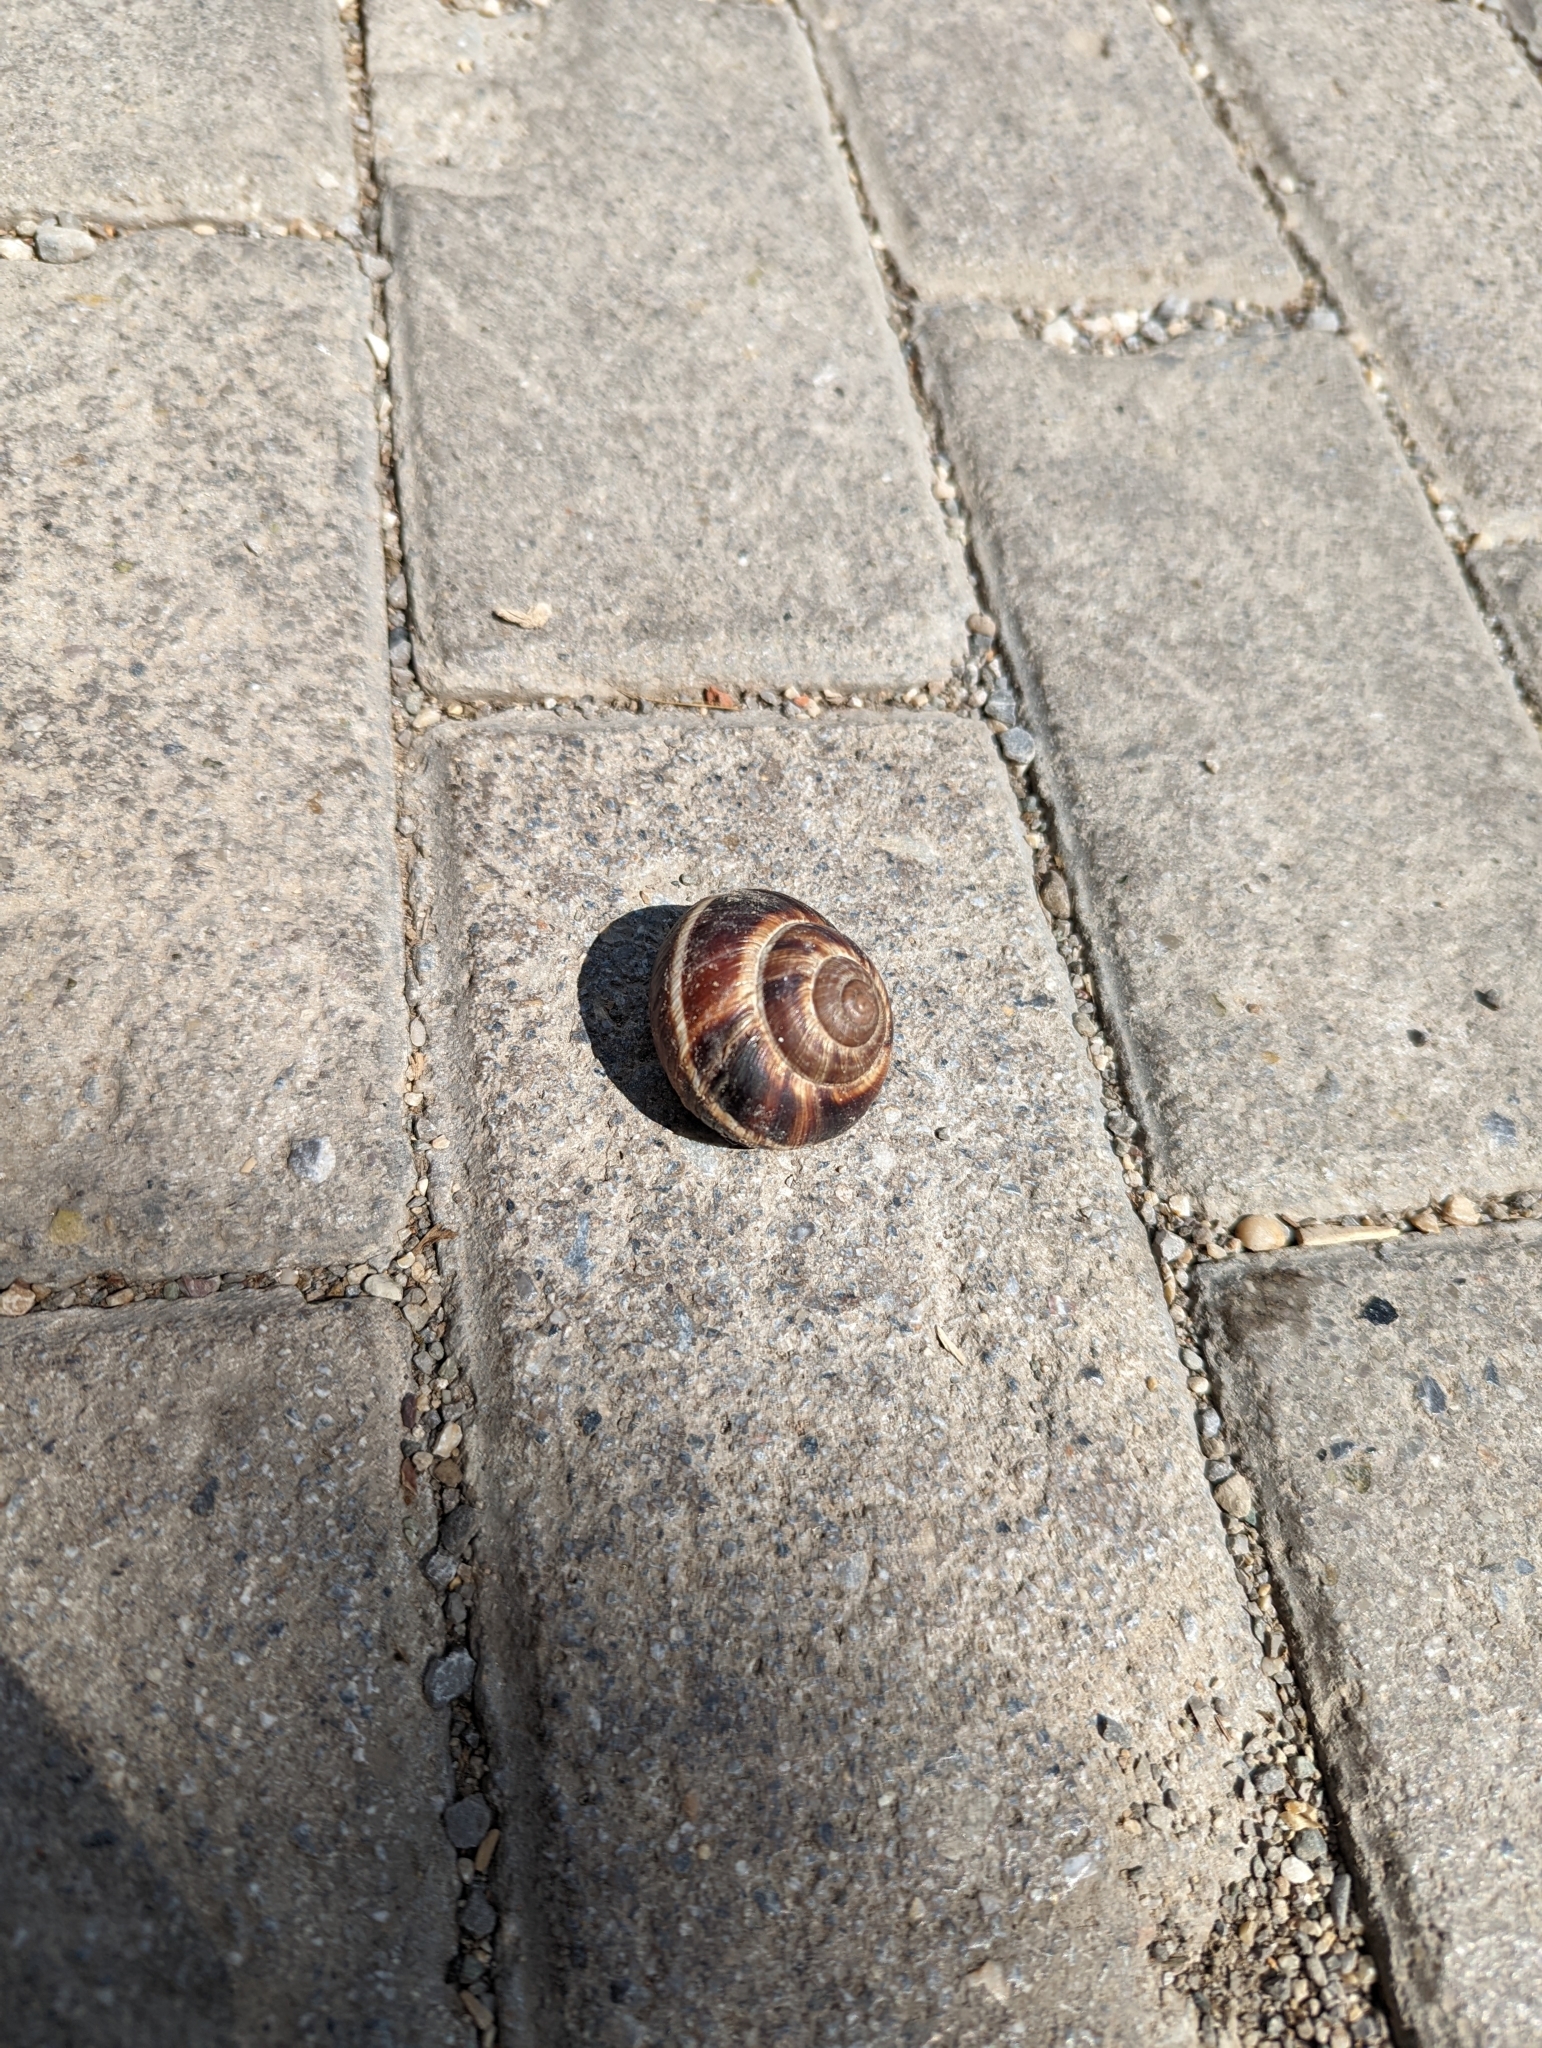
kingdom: Animalia
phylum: Mollusca
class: Gastropoda
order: Stylommatophora
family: Helicidae
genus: Helix
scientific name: Helix lucorum
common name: Turkish snail
